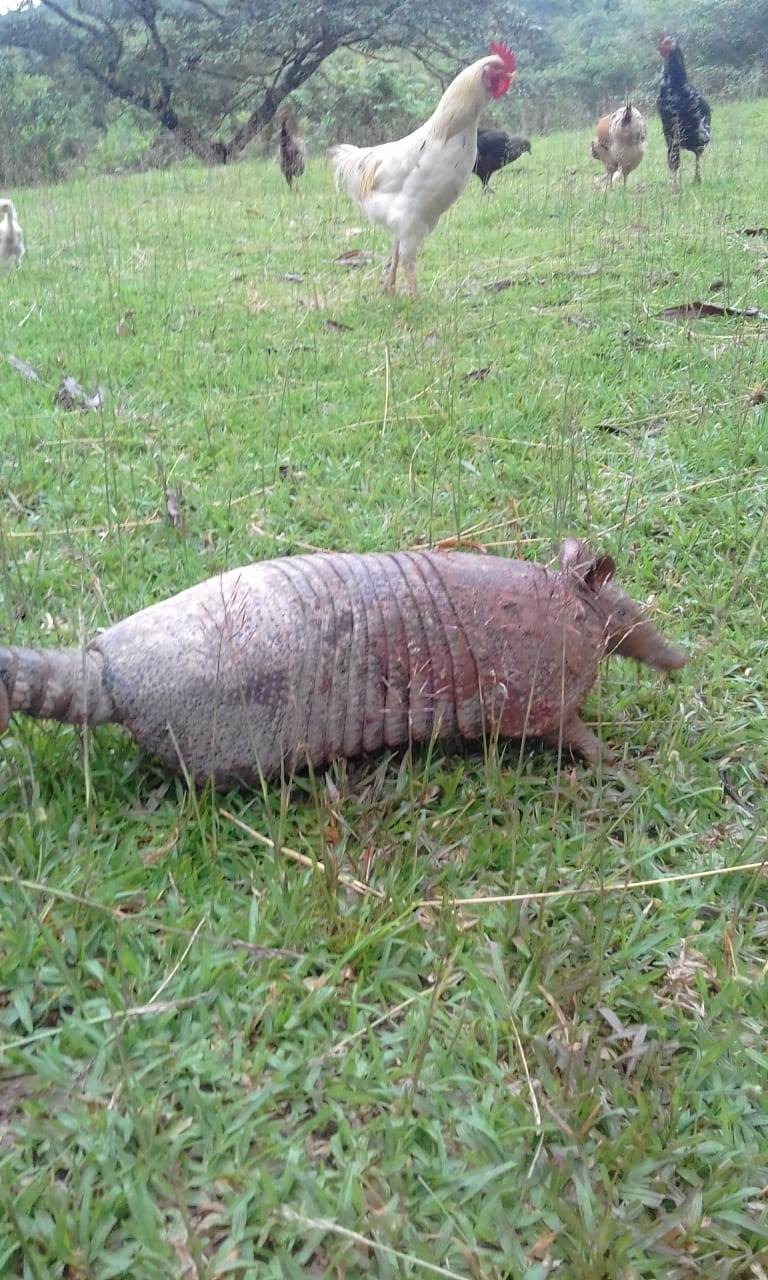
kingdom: Animalia
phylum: Chordata
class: Mammalia
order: Cingulata
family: Dasypodidae
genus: Dasypus
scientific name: Dasypus novemcinctus
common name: Nine-banded armadillo
